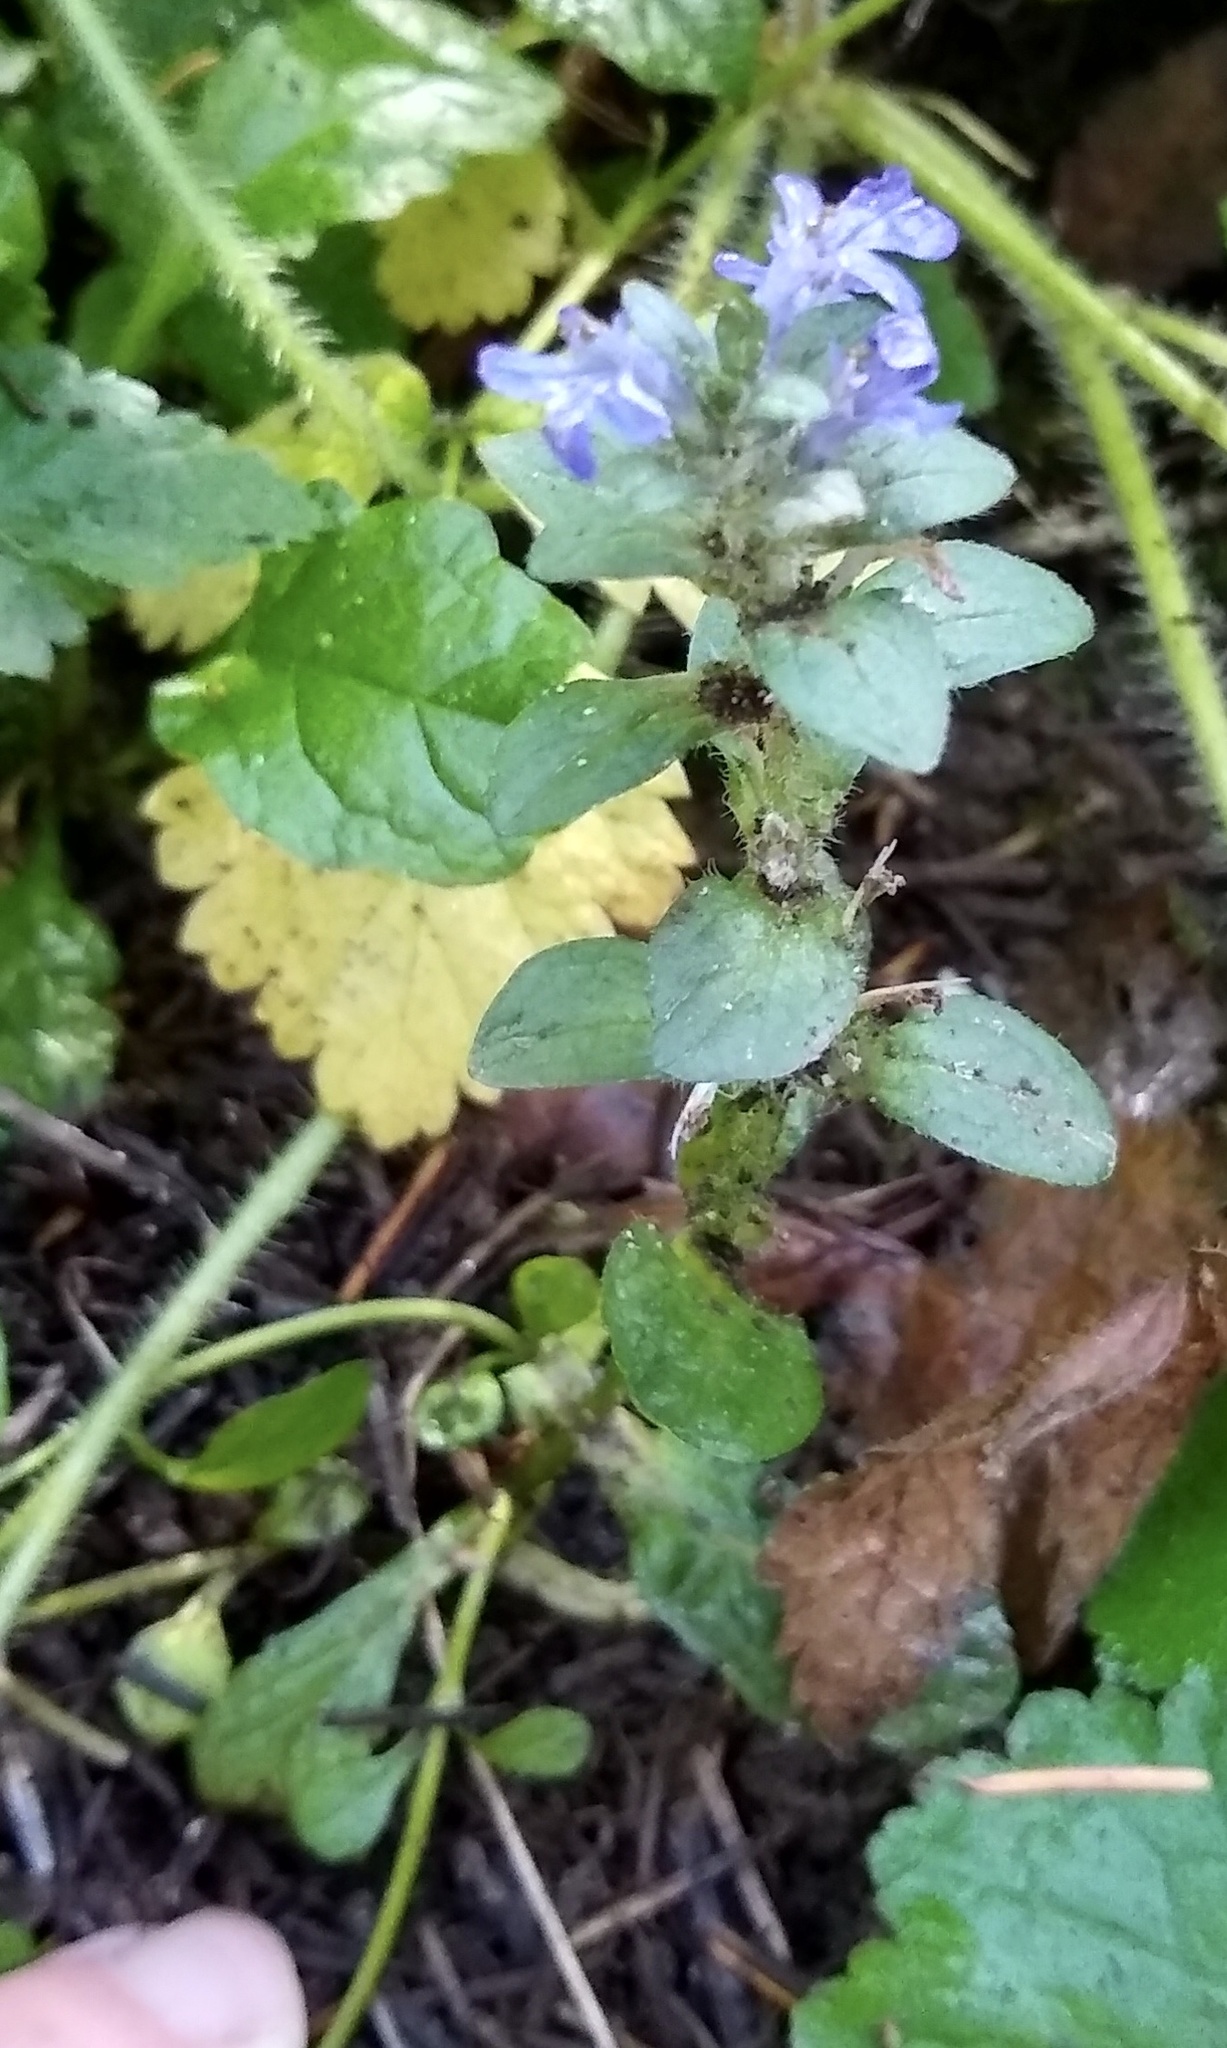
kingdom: Plantae
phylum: Tracheophyta
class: Magnoliopsida
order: Lamiales
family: Lamiaceae
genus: Ajuga
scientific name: Ajuga reptans
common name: Bugle
